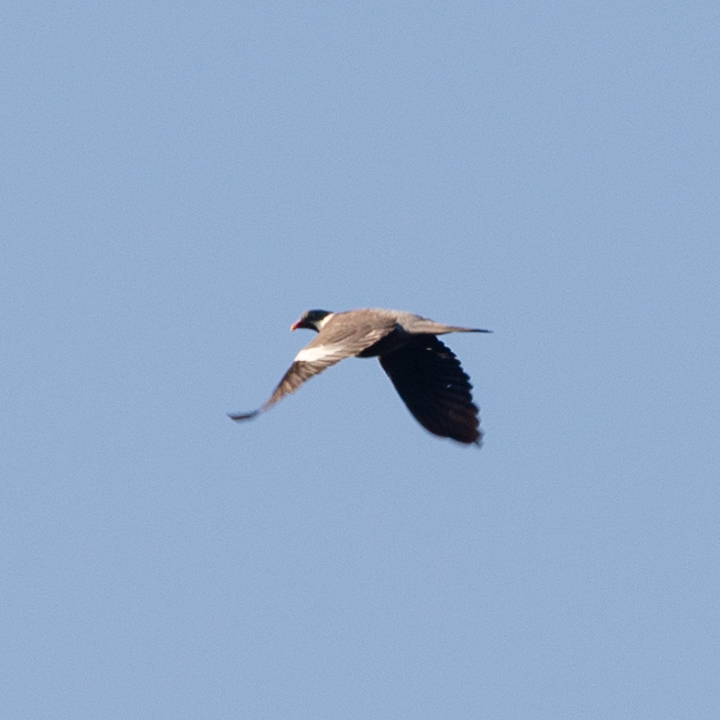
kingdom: Animalia
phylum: Chordata
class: Aves
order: Columbiformes
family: Columbidae
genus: Columba
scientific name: Columba palumbus
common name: Common wood pigeon
